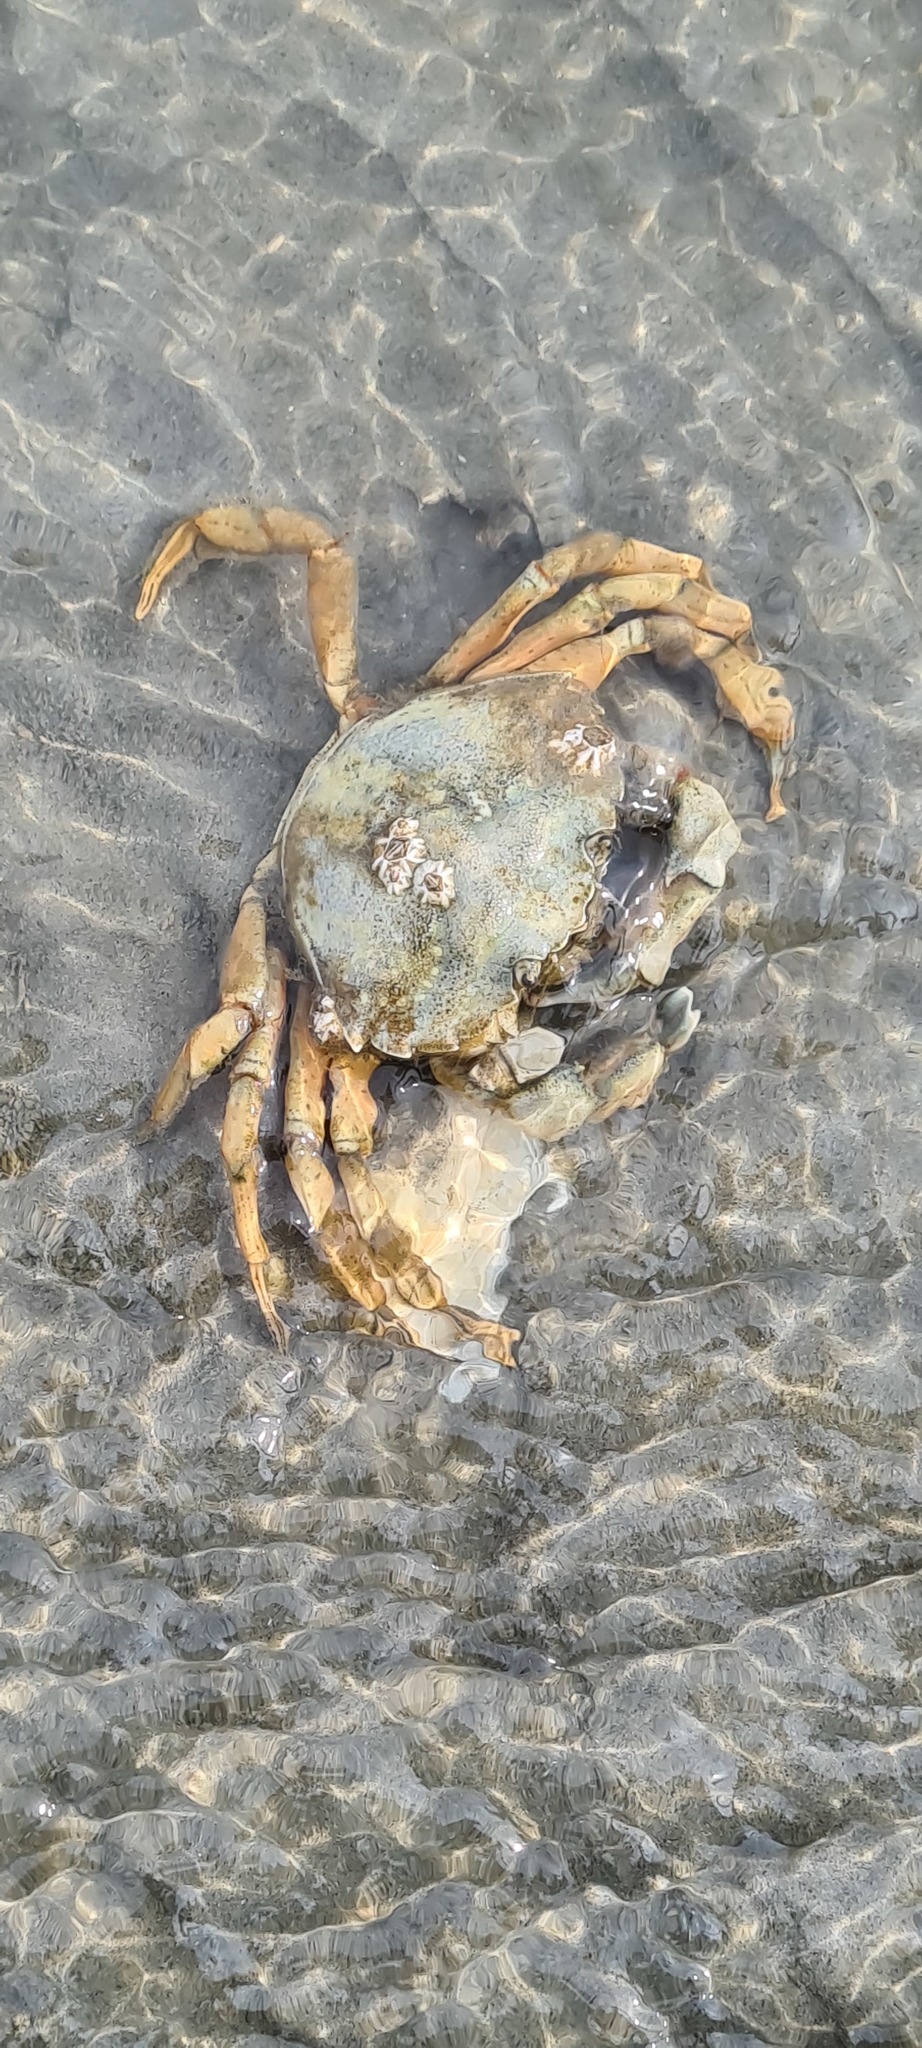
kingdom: Animalia
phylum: Arthropoda
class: Malacostraca
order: Decapoda
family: Carcinidae
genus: Carcinus
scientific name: Carcinus maenas
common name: European green crab
